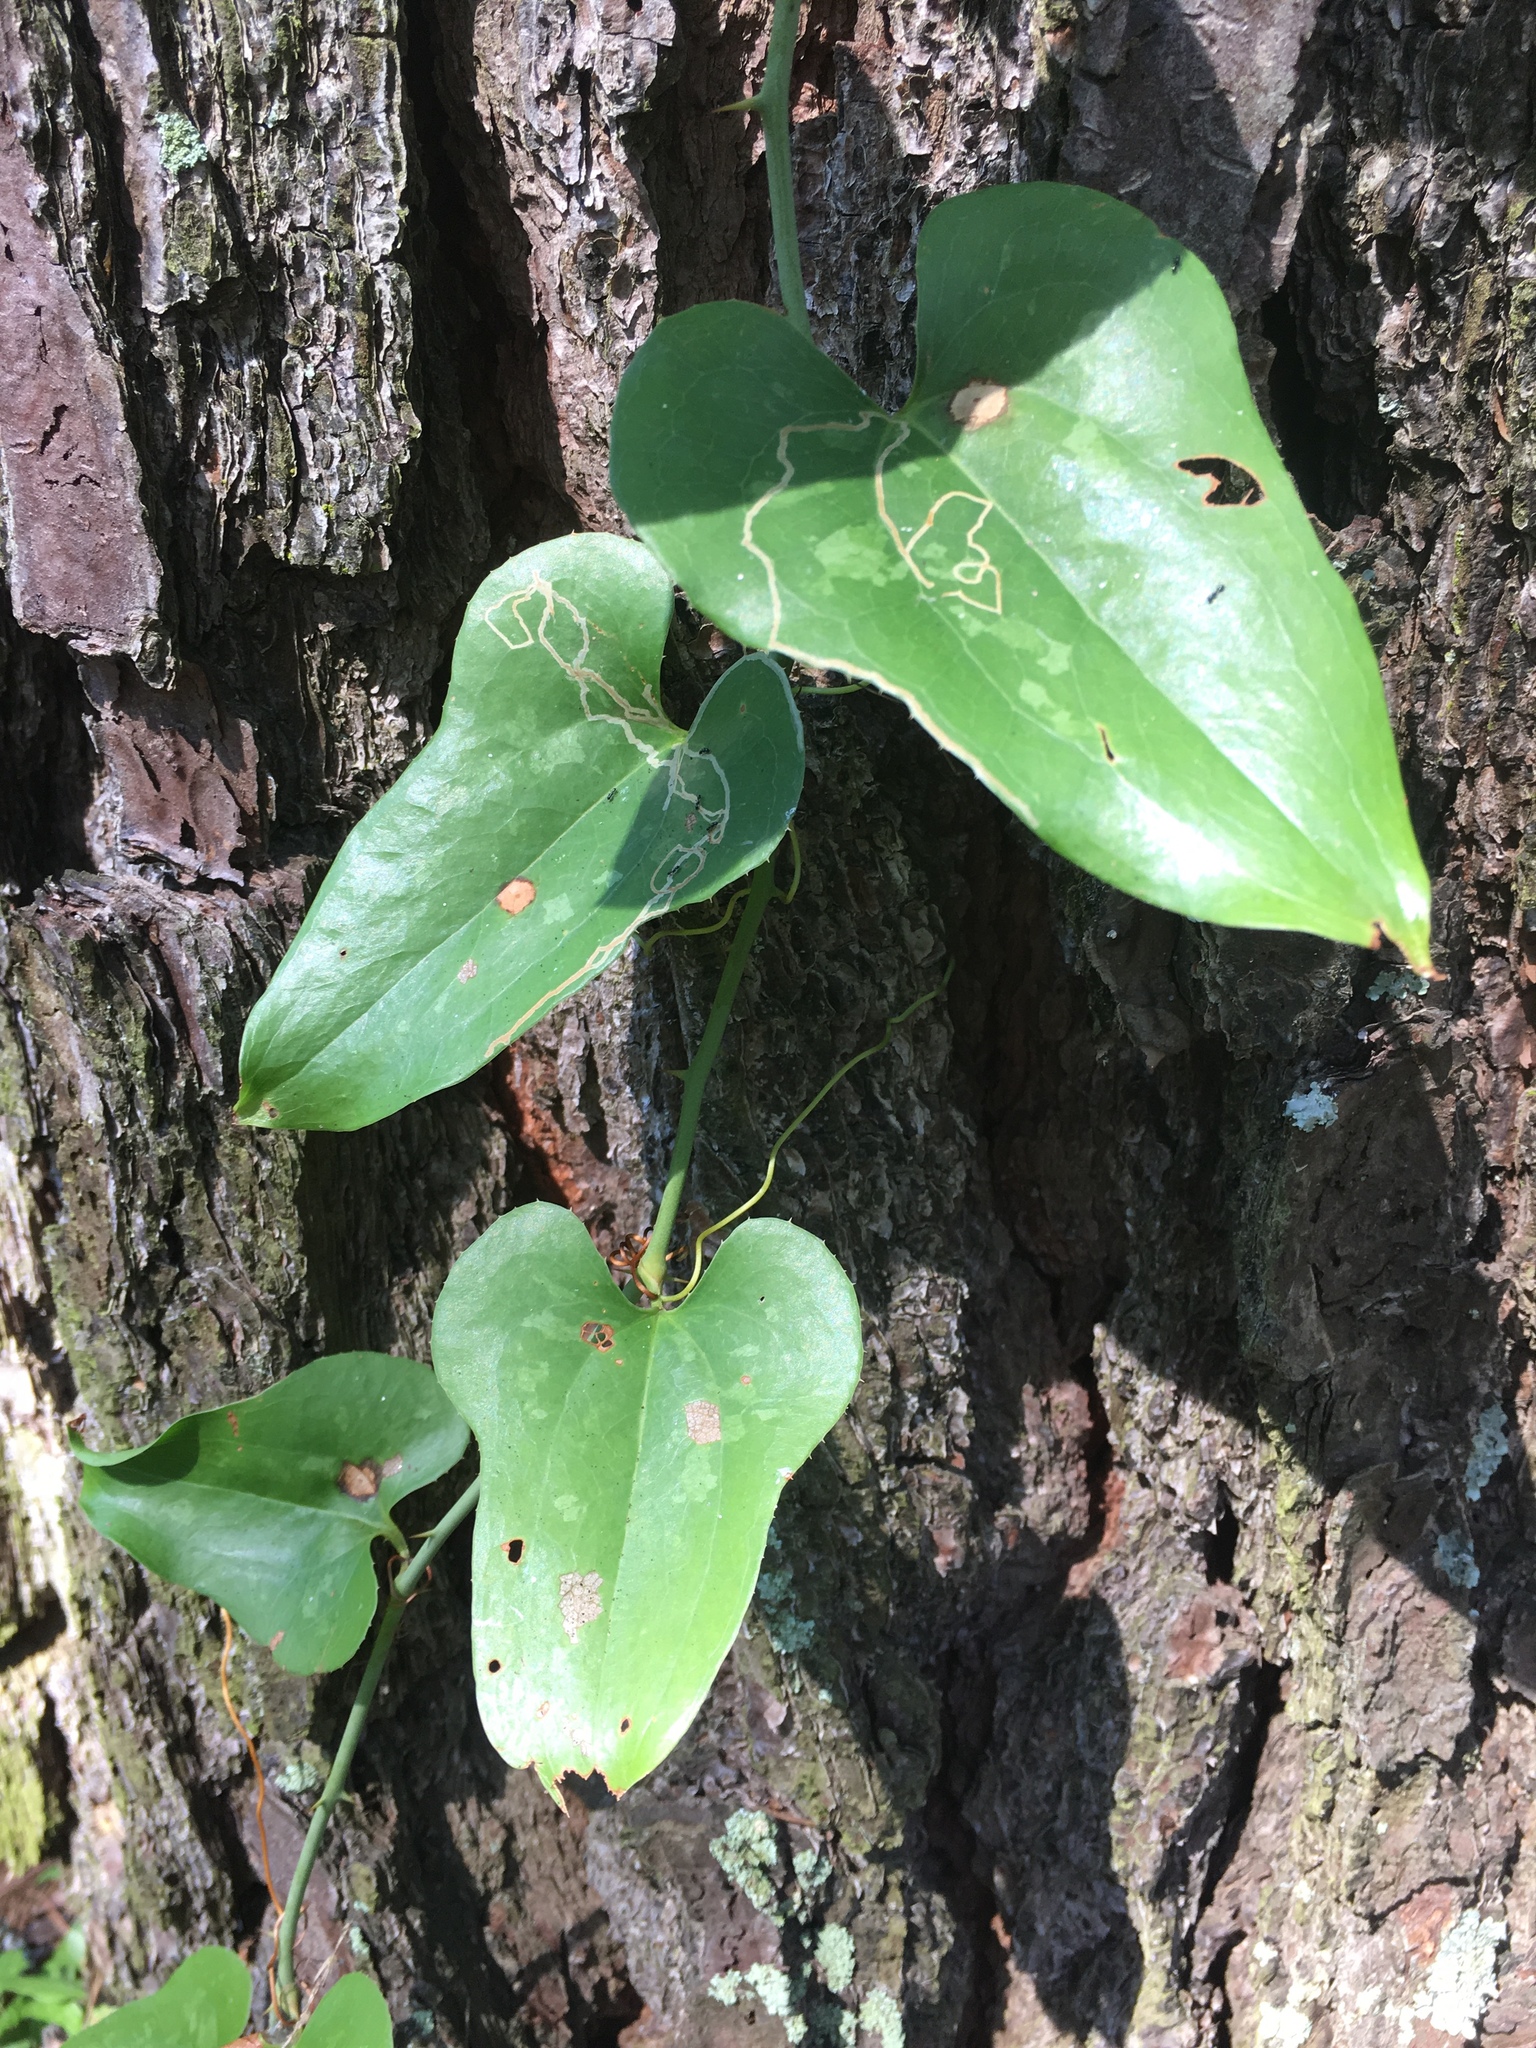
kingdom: Plantae
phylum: Tracheophyta
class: Liliopsida
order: Liliales
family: Smilacaceae
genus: Smilax
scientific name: Smilax bona-nox
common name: Catbrier
